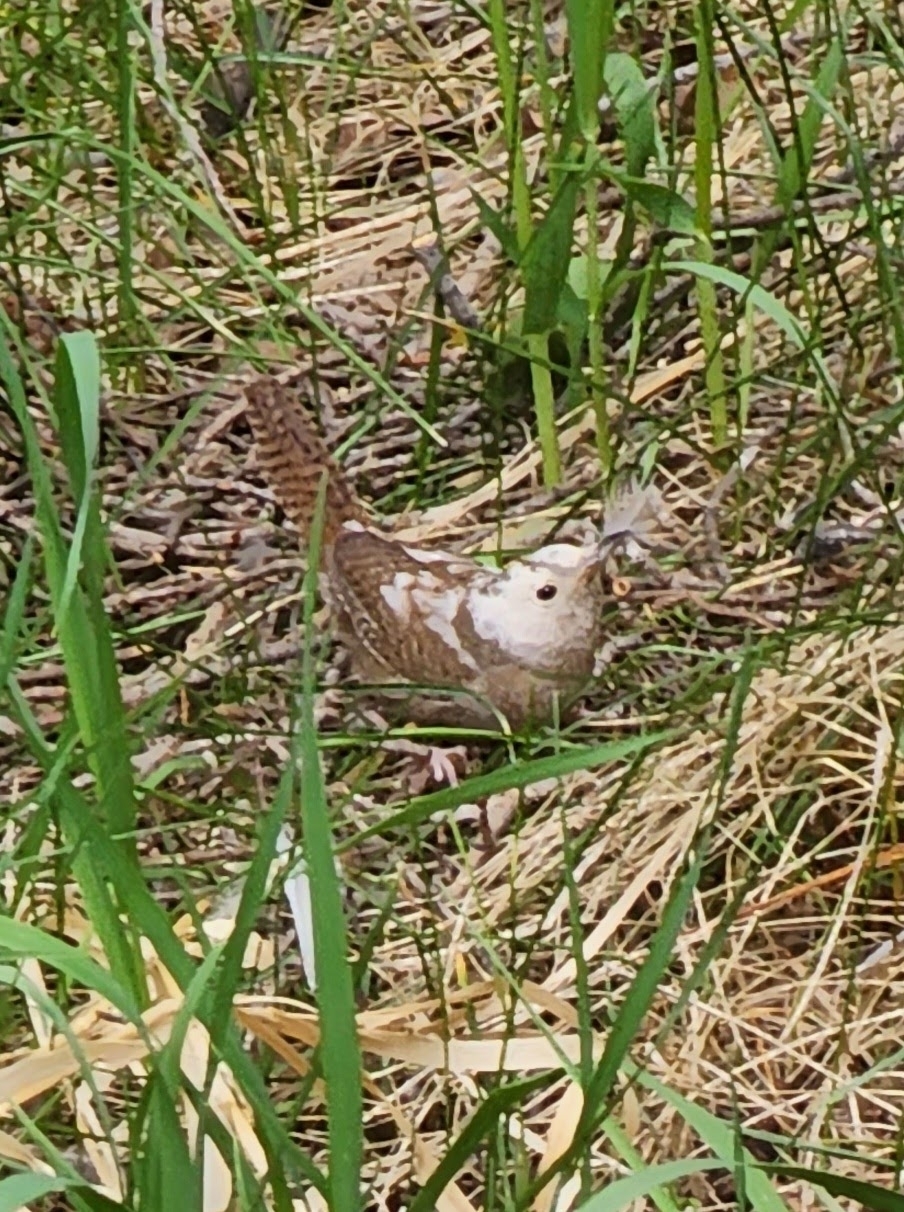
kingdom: Animalia
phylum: Chordata
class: Aves
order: Passeriformes
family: Troglodytidae
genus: Troglodytes
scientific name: Troglodytes aedon
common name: House wren
